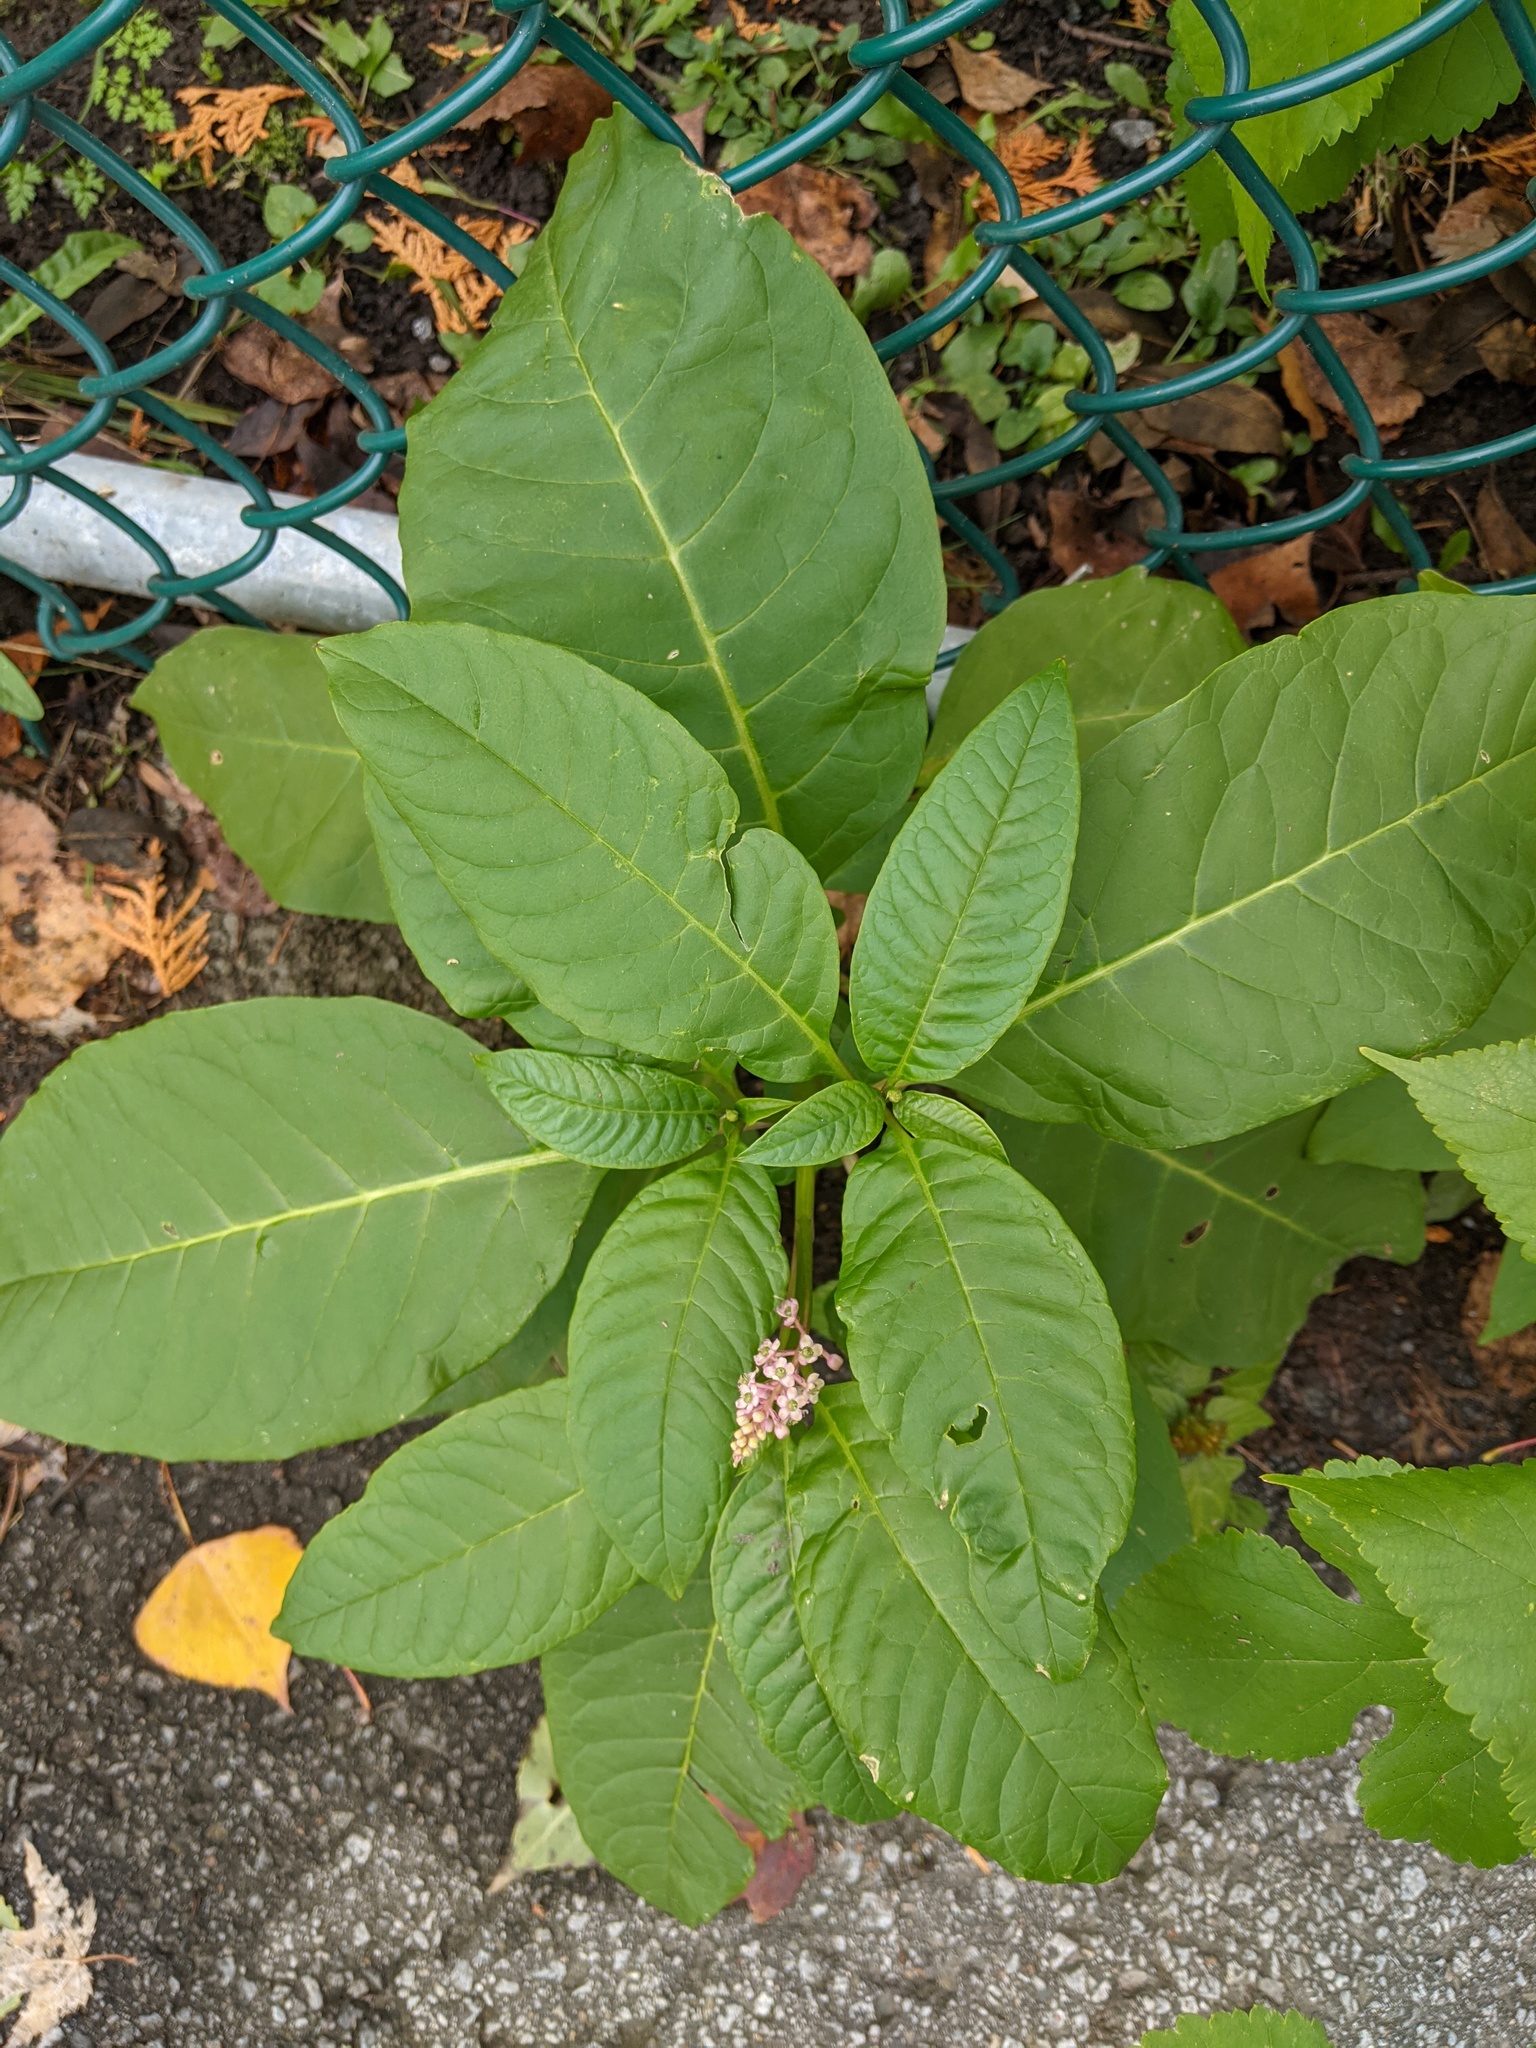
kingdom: Plantae
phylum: Tracheophyta
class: Magnoliopsida
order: Caryophyllales
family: Phytolaccaceae
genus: Phytolacca
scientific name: Phytolacca americana
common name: American pokeweed
